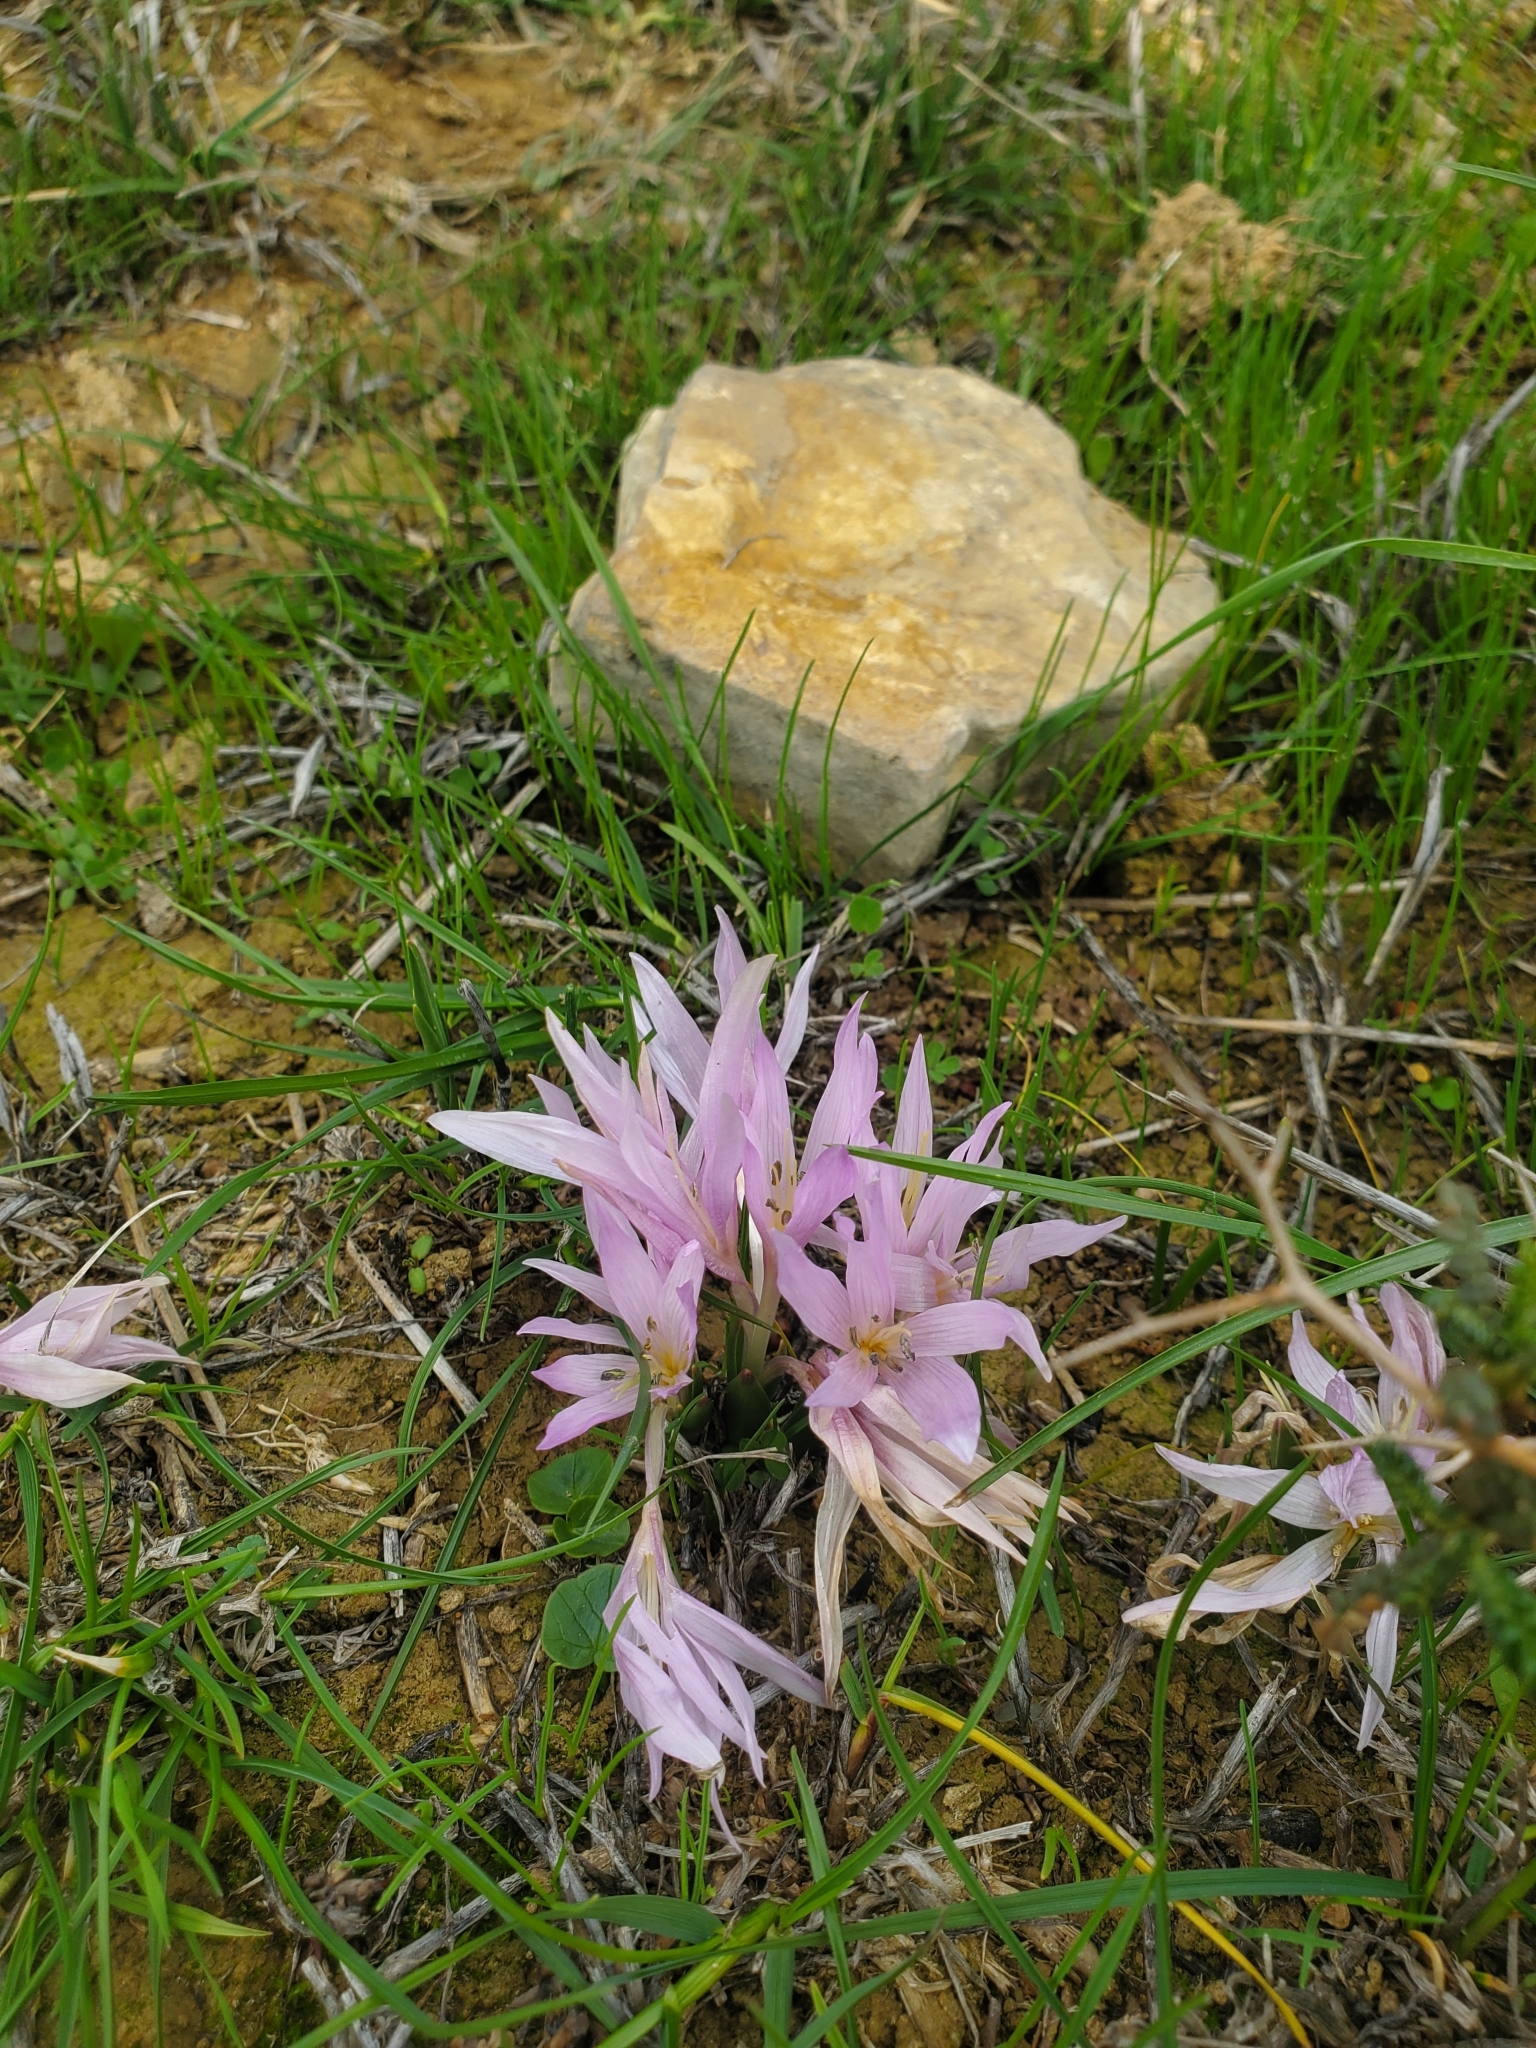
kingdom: Plantae
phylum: Tracheophyta
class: Liliopsida
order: Liliales
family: Colchicaceae
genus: Colchicum
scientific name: Colchicum szovitsii
